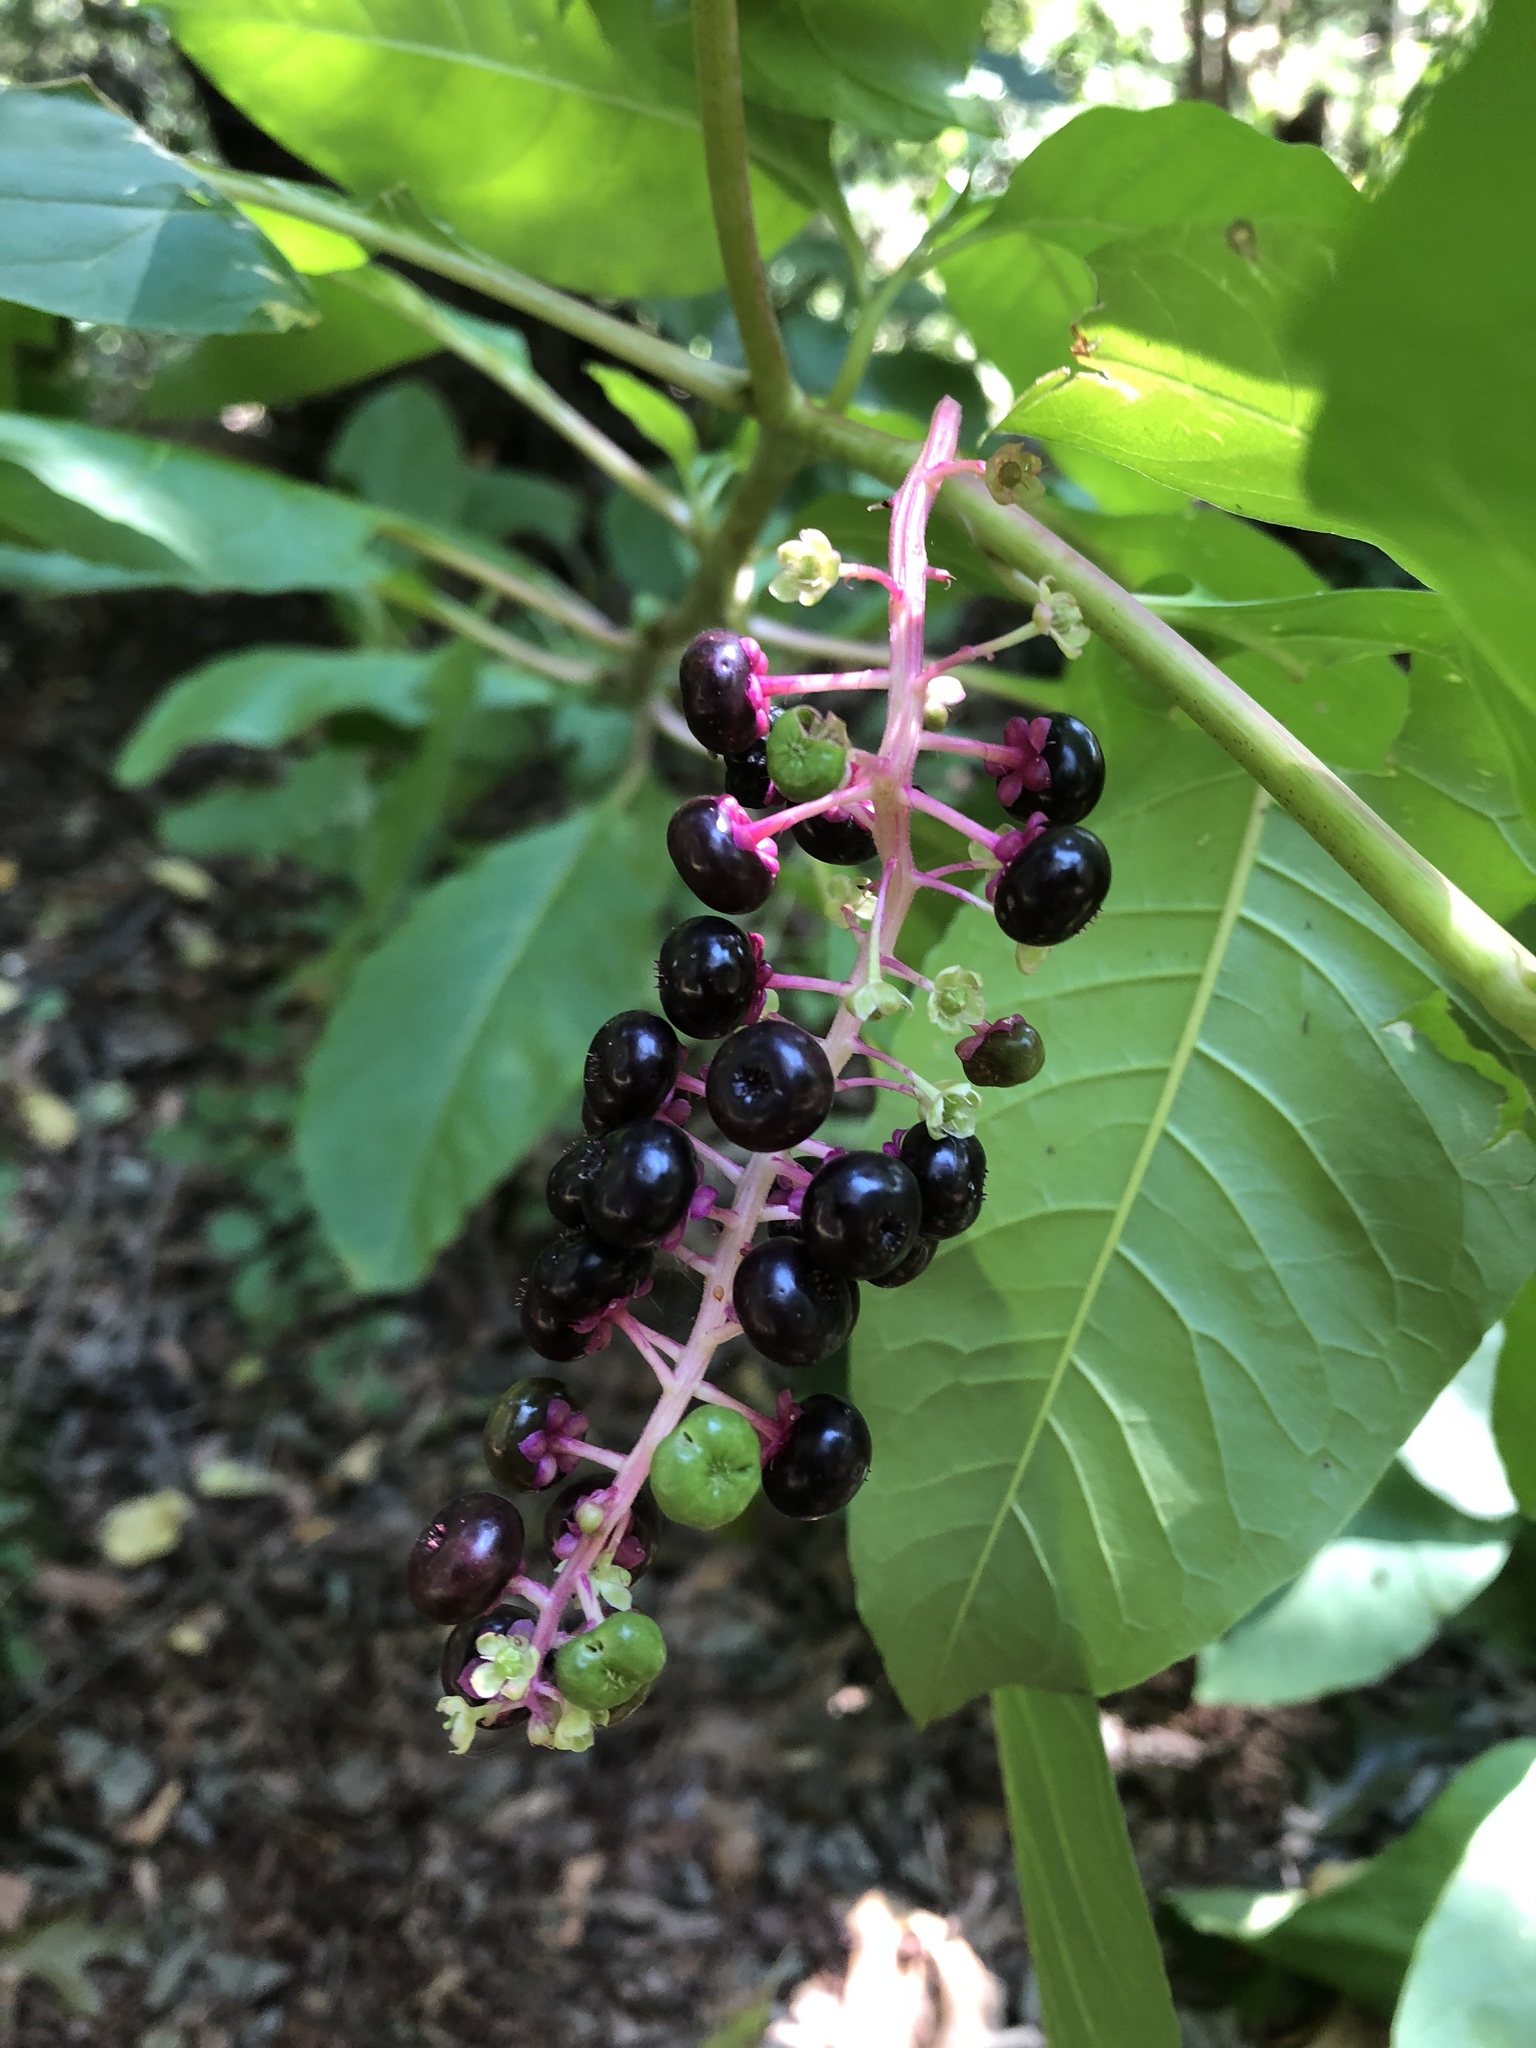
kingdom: Plantae
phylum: Tracheophyta
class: Magnoliopsida
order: Caryophyllales
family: Phytolaccaceae
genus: Phytolacca
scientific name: Phytolacca americana
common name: American pokeweed
